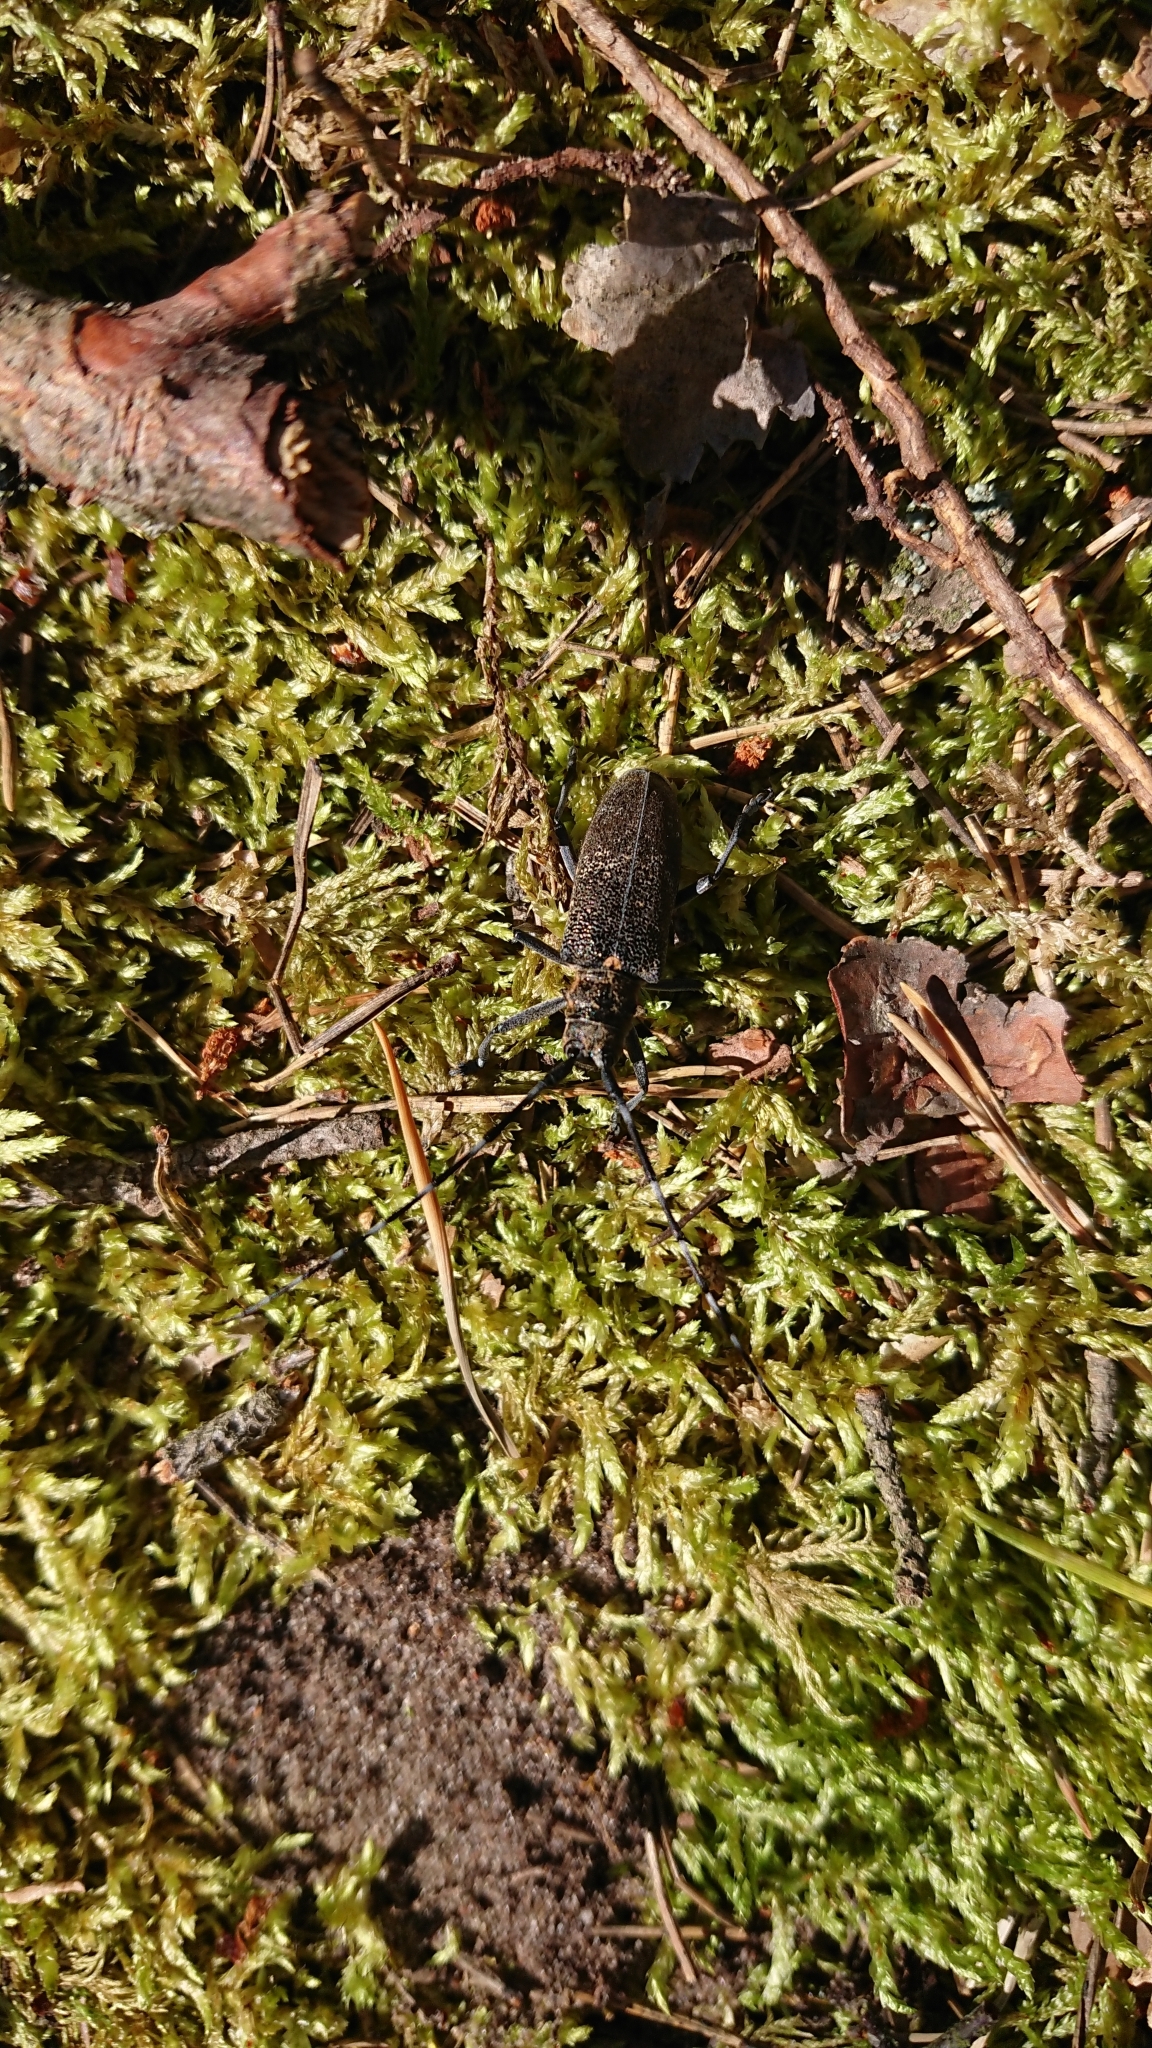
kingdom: Animalia
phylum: Arthropoda
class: Insecta
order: Coleoptera
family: Cerambycidae
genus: Monochamus
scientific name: Monochamus galloprovincialis
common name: Pine sawyer
